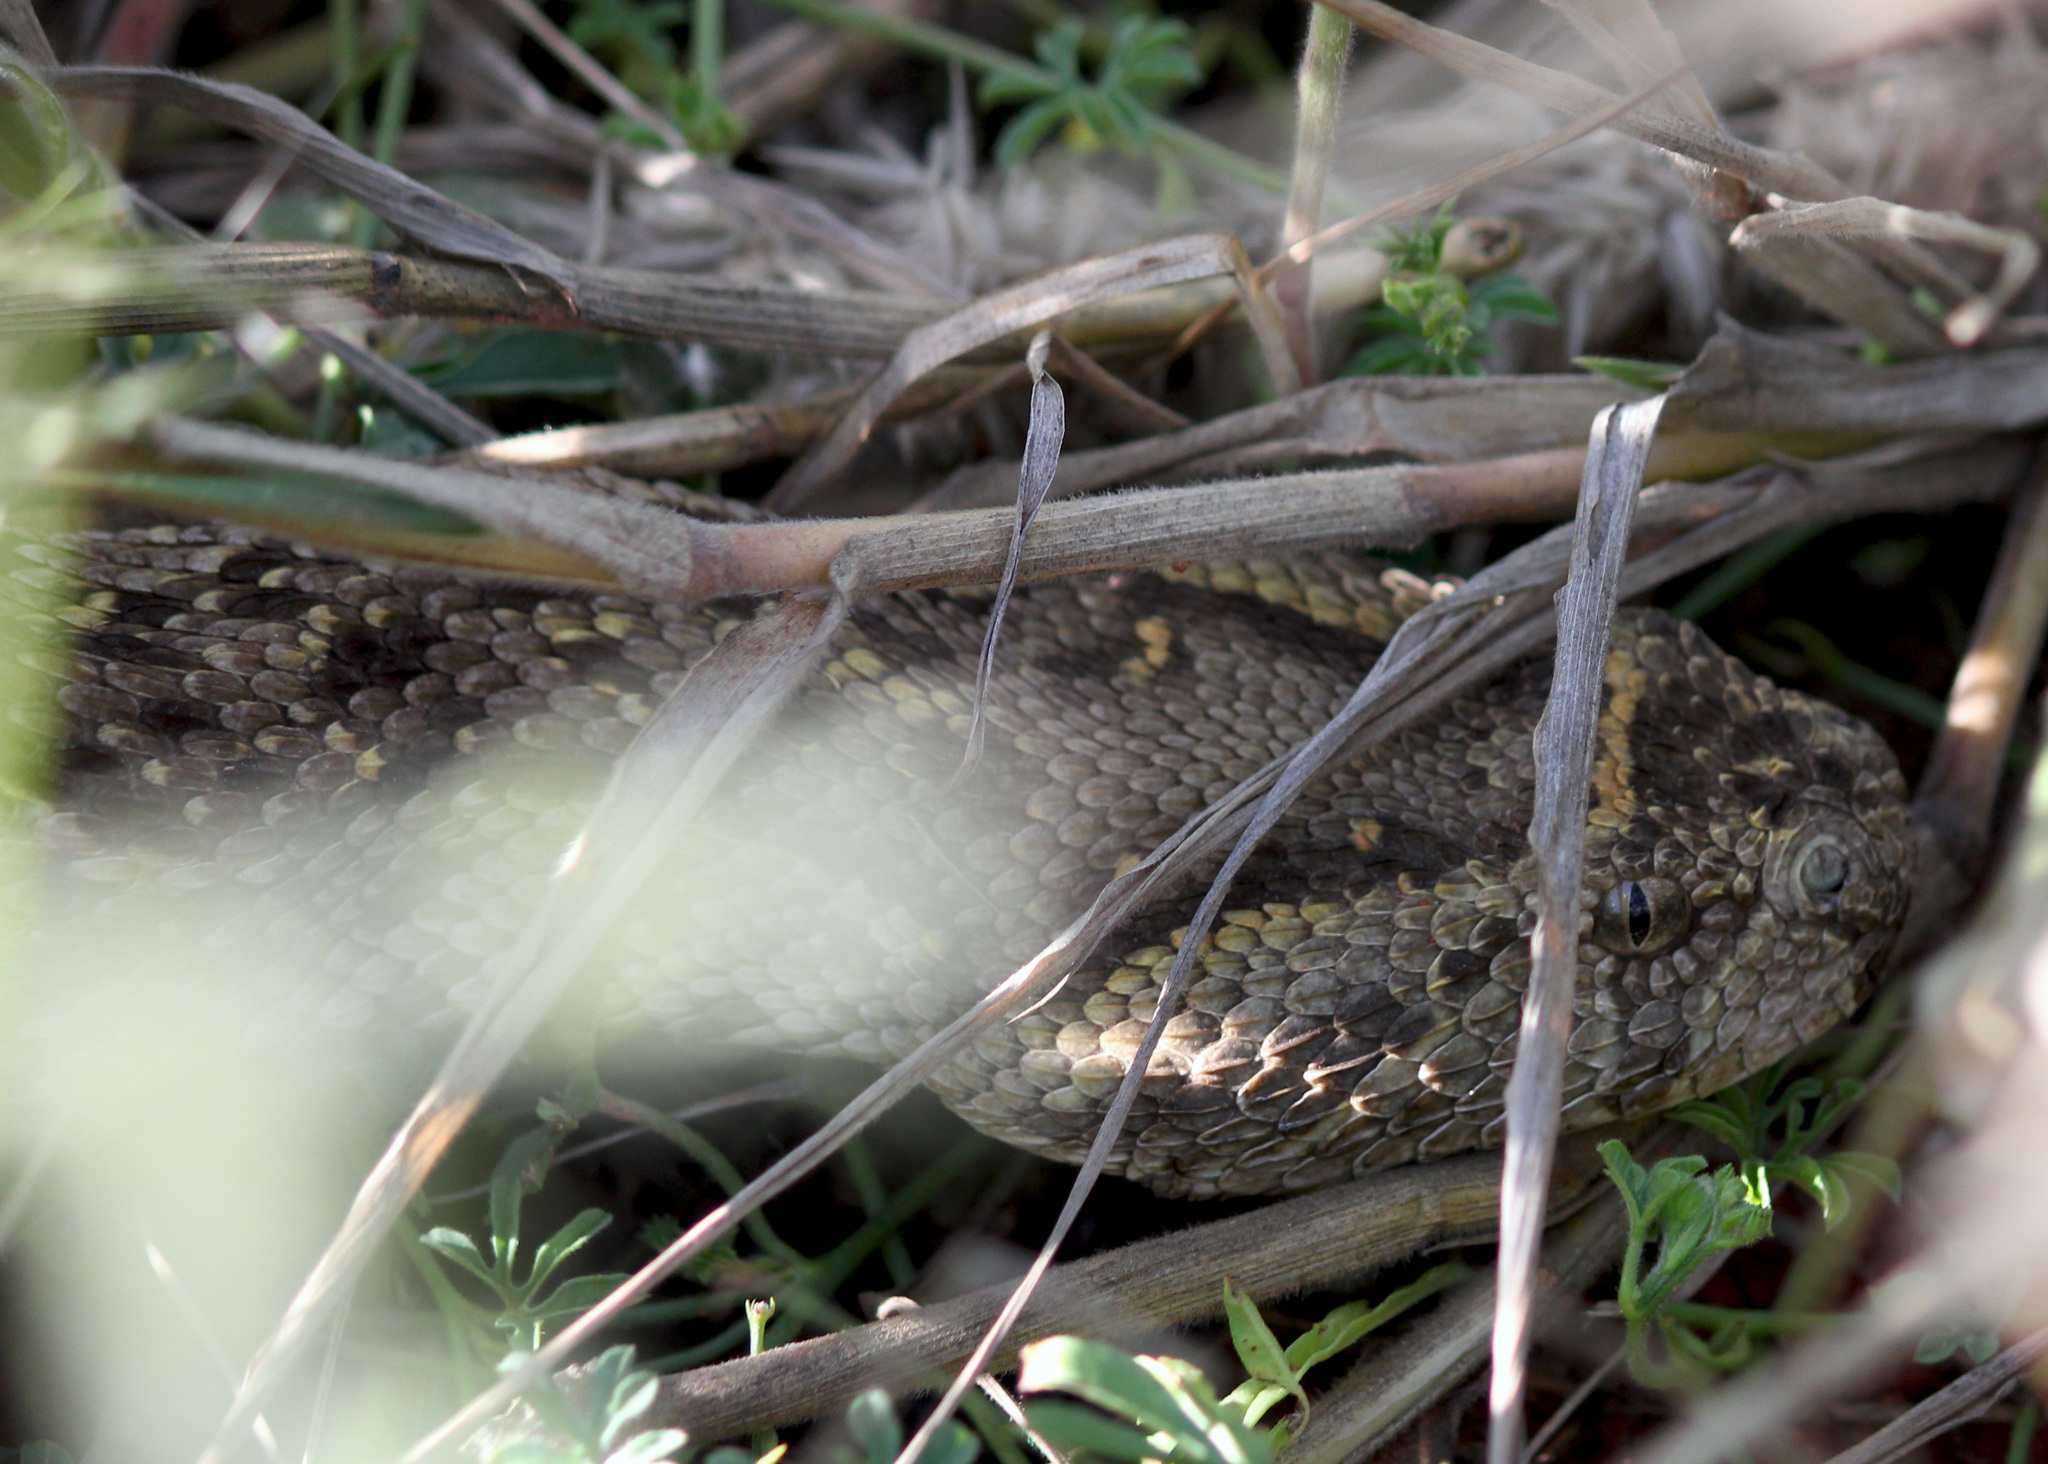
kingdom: Animalia
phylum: Chordata
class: Squamata
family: Viperidae
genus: Bitis
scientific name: Bitis arietans
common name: Puff adder
